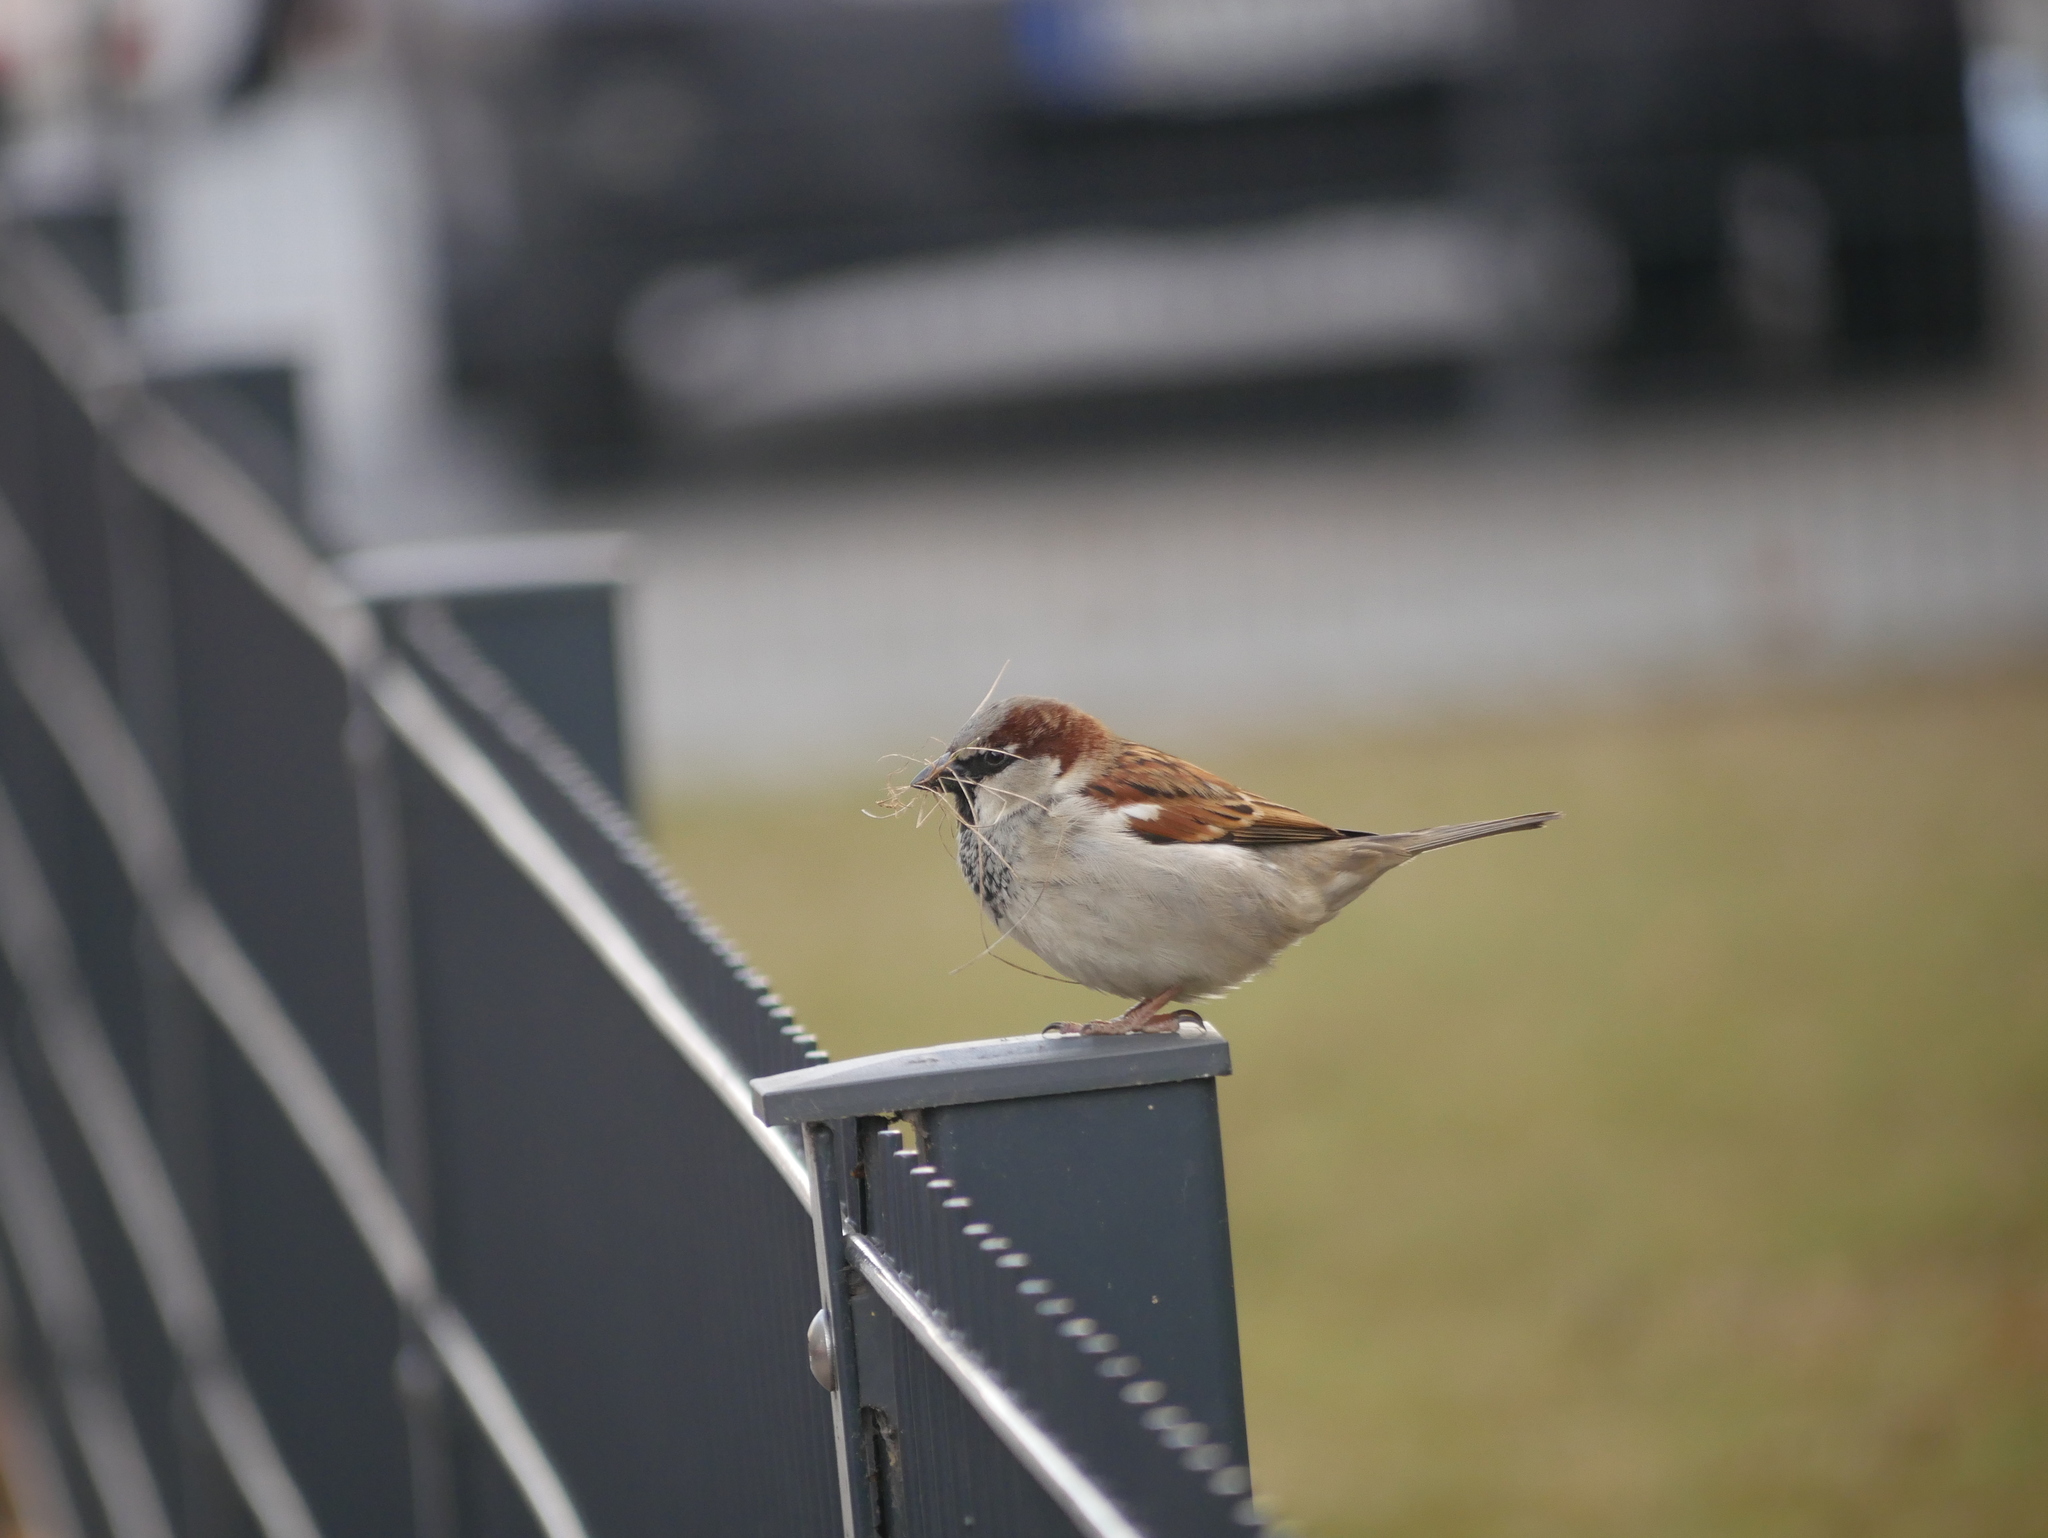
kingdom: Animalia
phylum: Chordata
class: Aves
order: Passeriformes
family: Passeridae
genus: Passer
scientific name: Passer domesticus
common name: House sparrow
